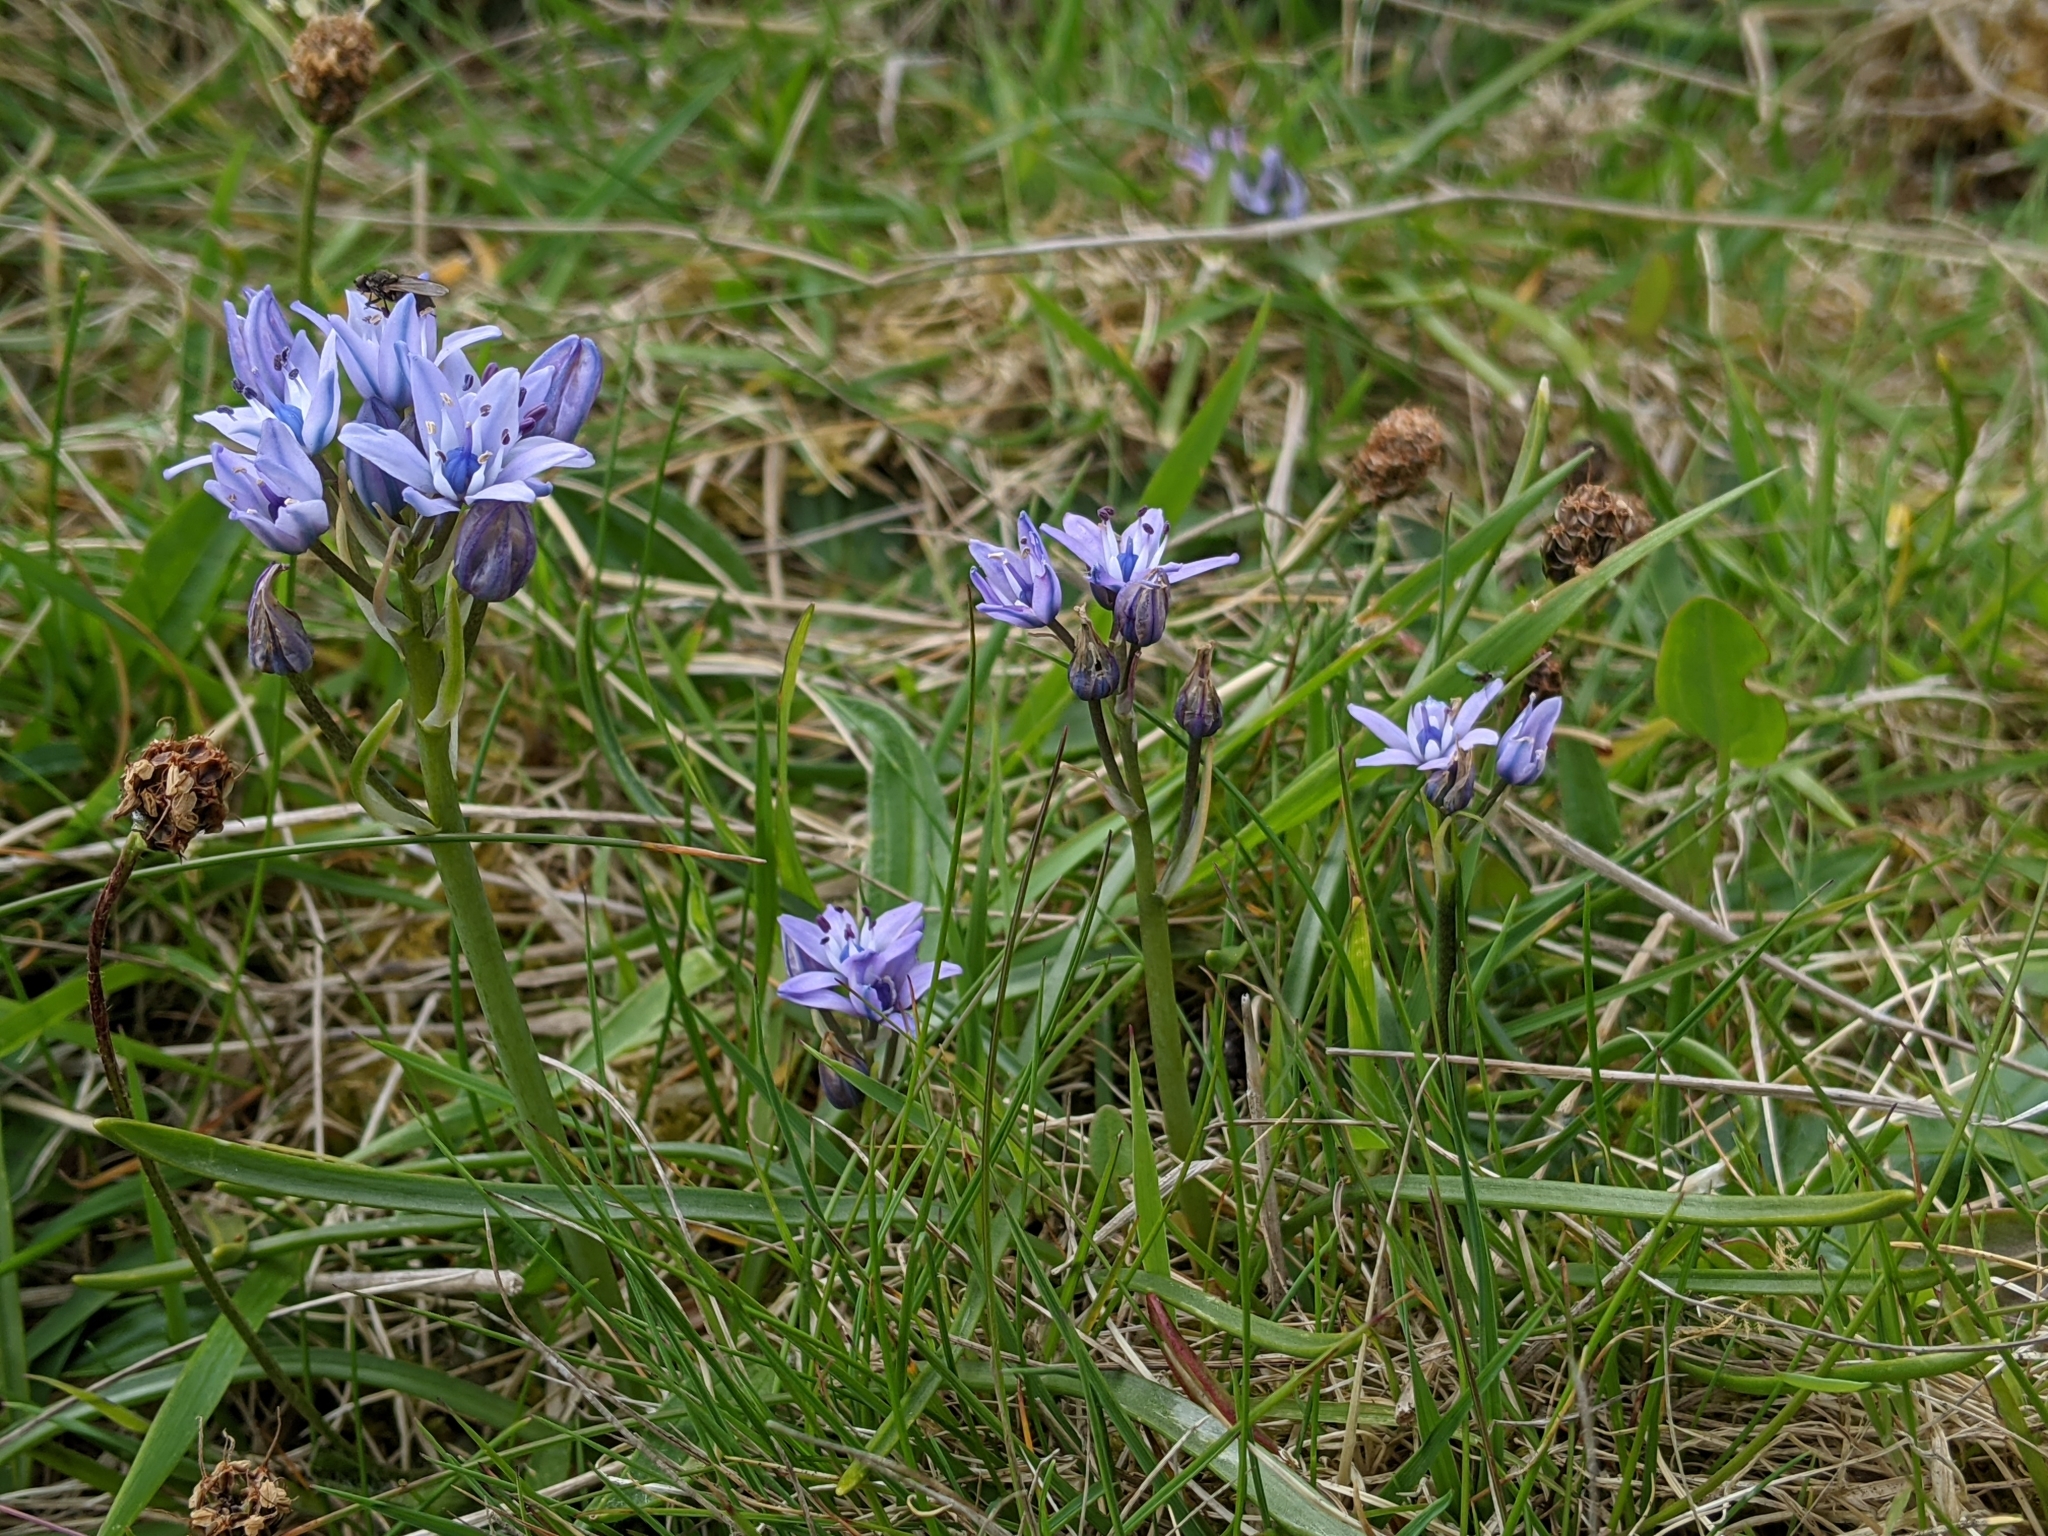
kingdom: Plantae
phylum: Tracheophyta
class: Liliopsida
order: Asparagales
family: Asparagaceae
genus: Scilla
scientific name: Scilla verna
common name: Spring squill
